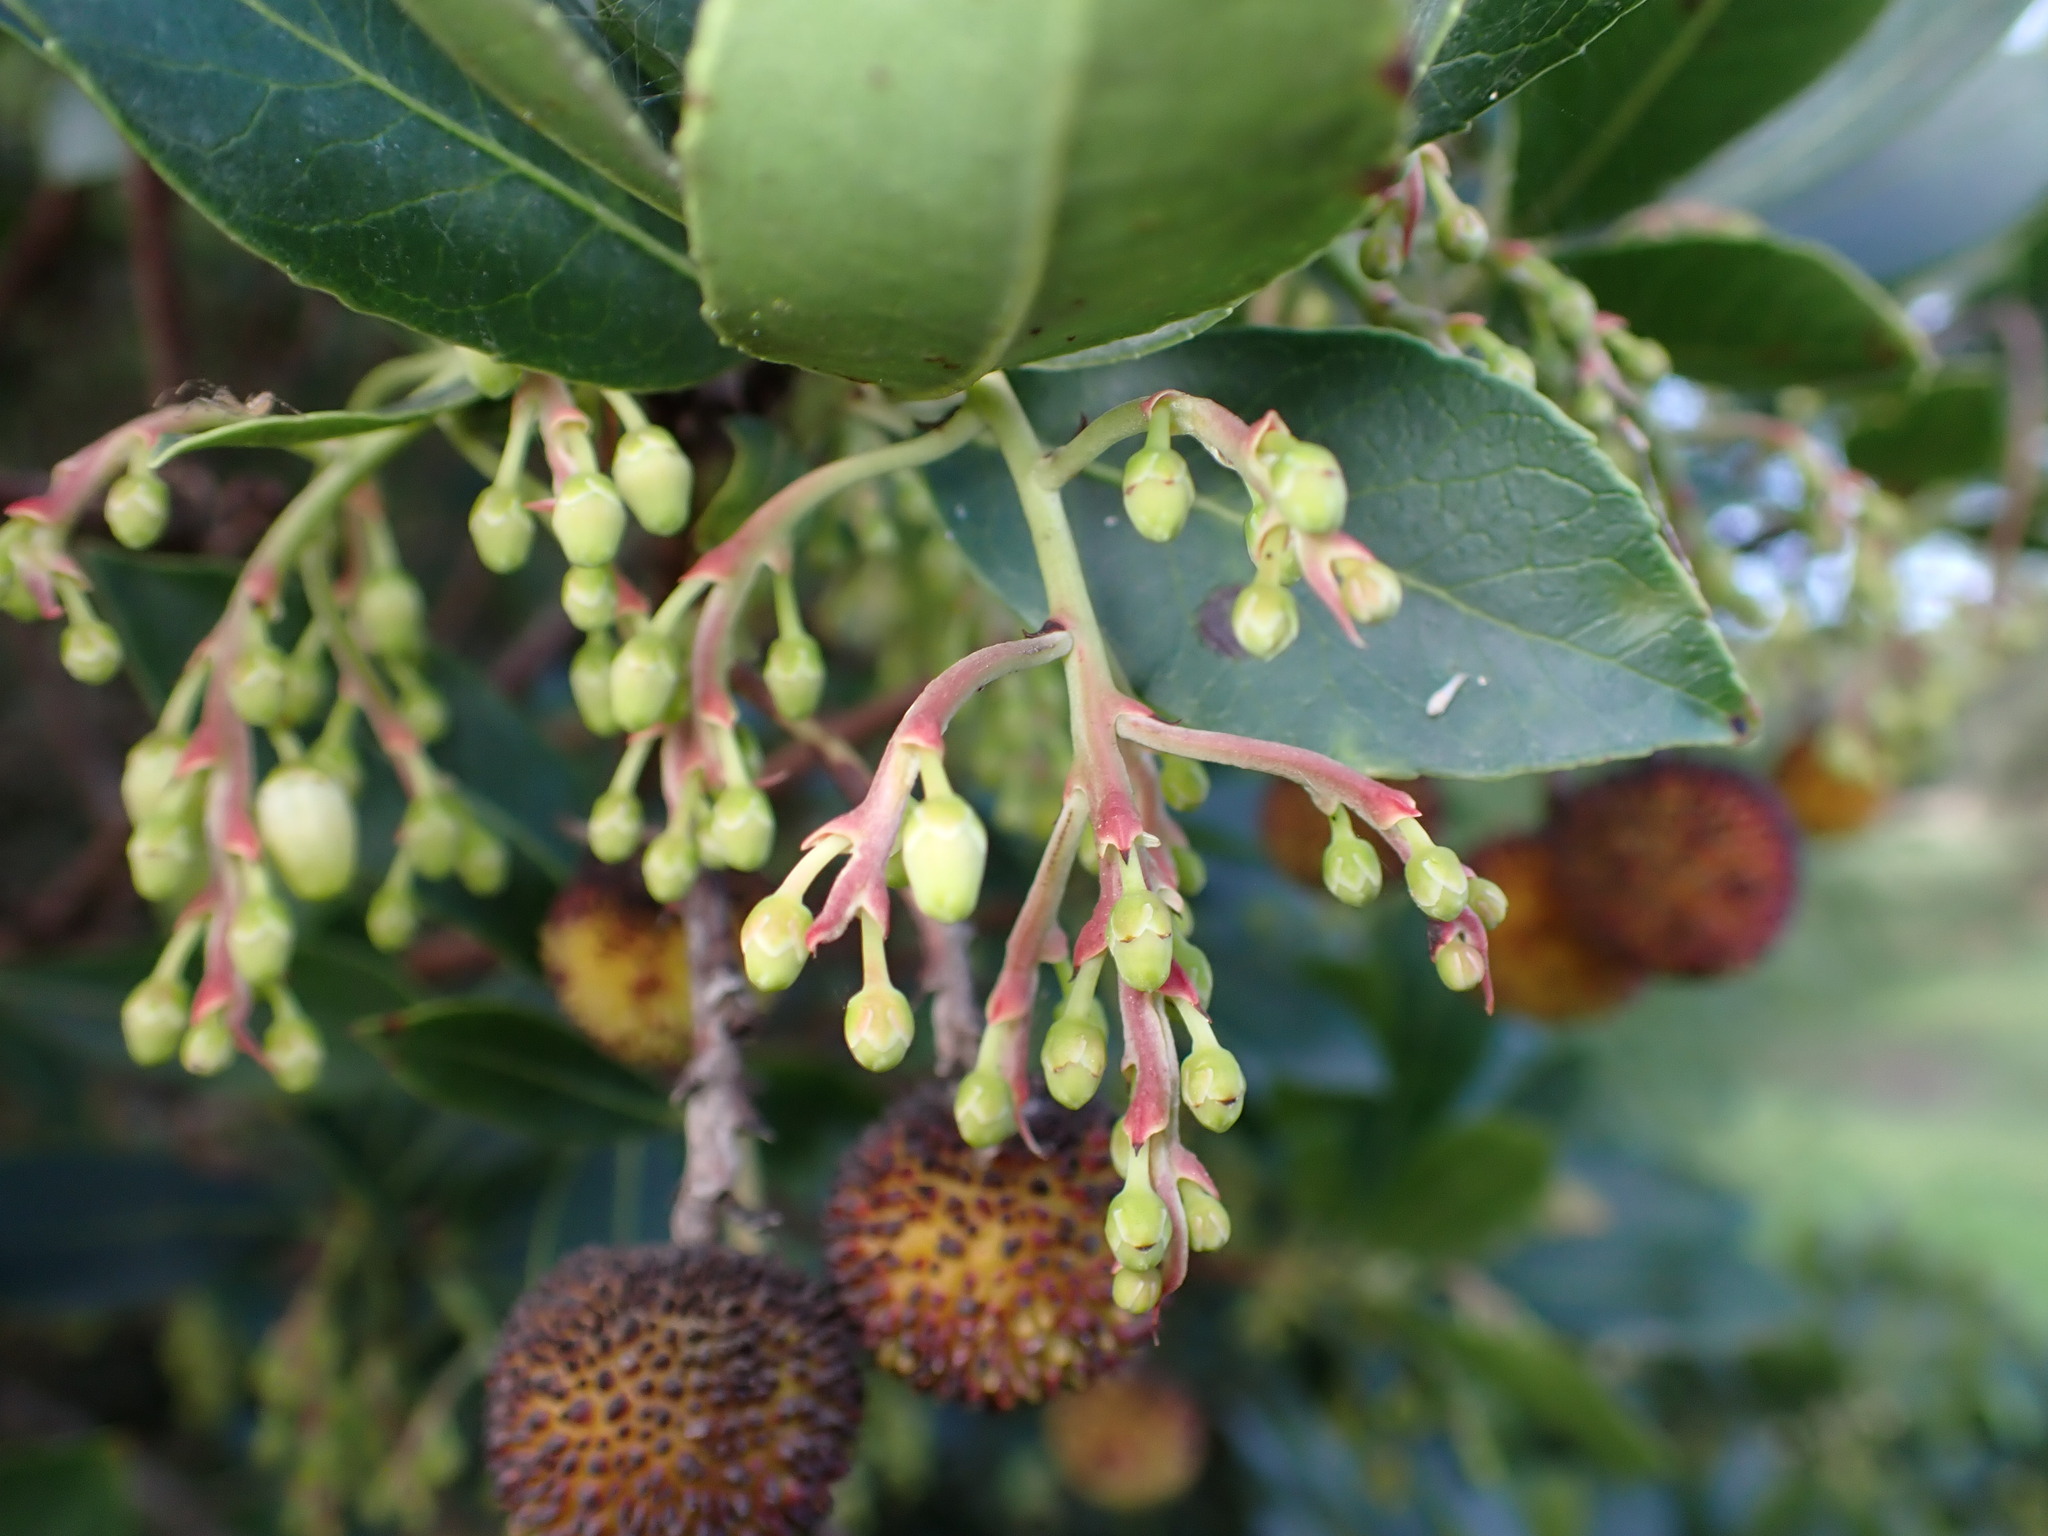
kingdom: Plantae
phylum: Tracheophyta
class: Magnoliopsida
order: Ericales
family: Ericaceae
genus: Arbutus
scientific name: Arbutus unedo
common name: Strawberry-tree
